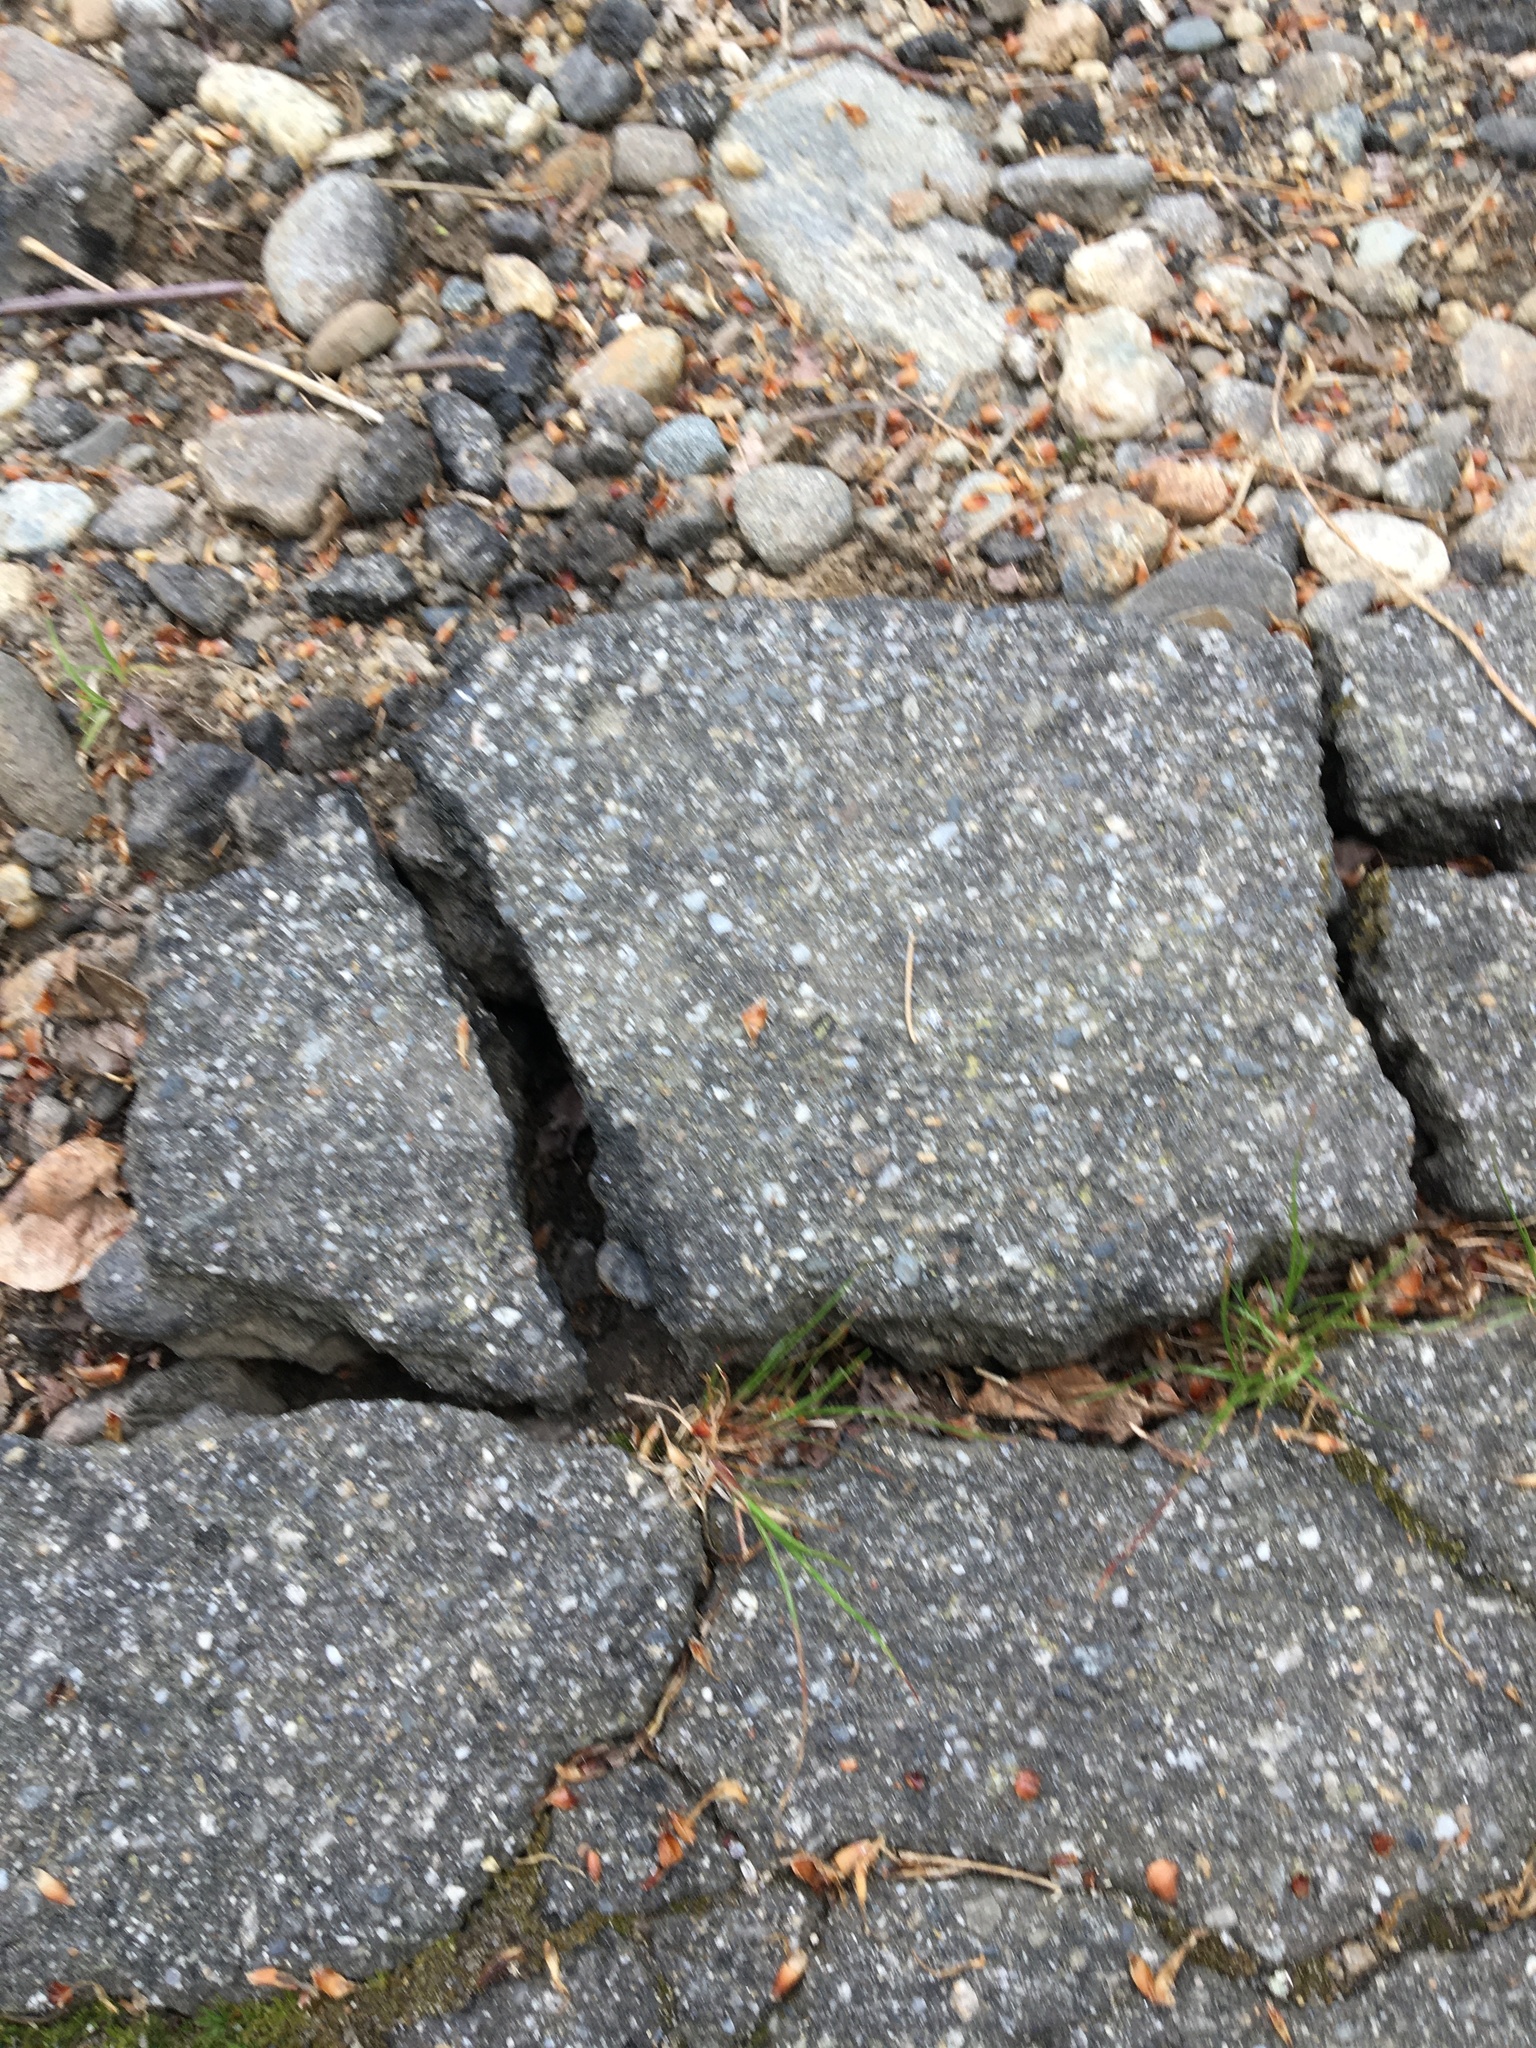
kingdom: Animalia
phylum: Chordata
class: Amphibia
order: Anura
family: Bufonidae
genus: Anaxyrus
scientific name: Anaxyrus americanus
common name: American toad
